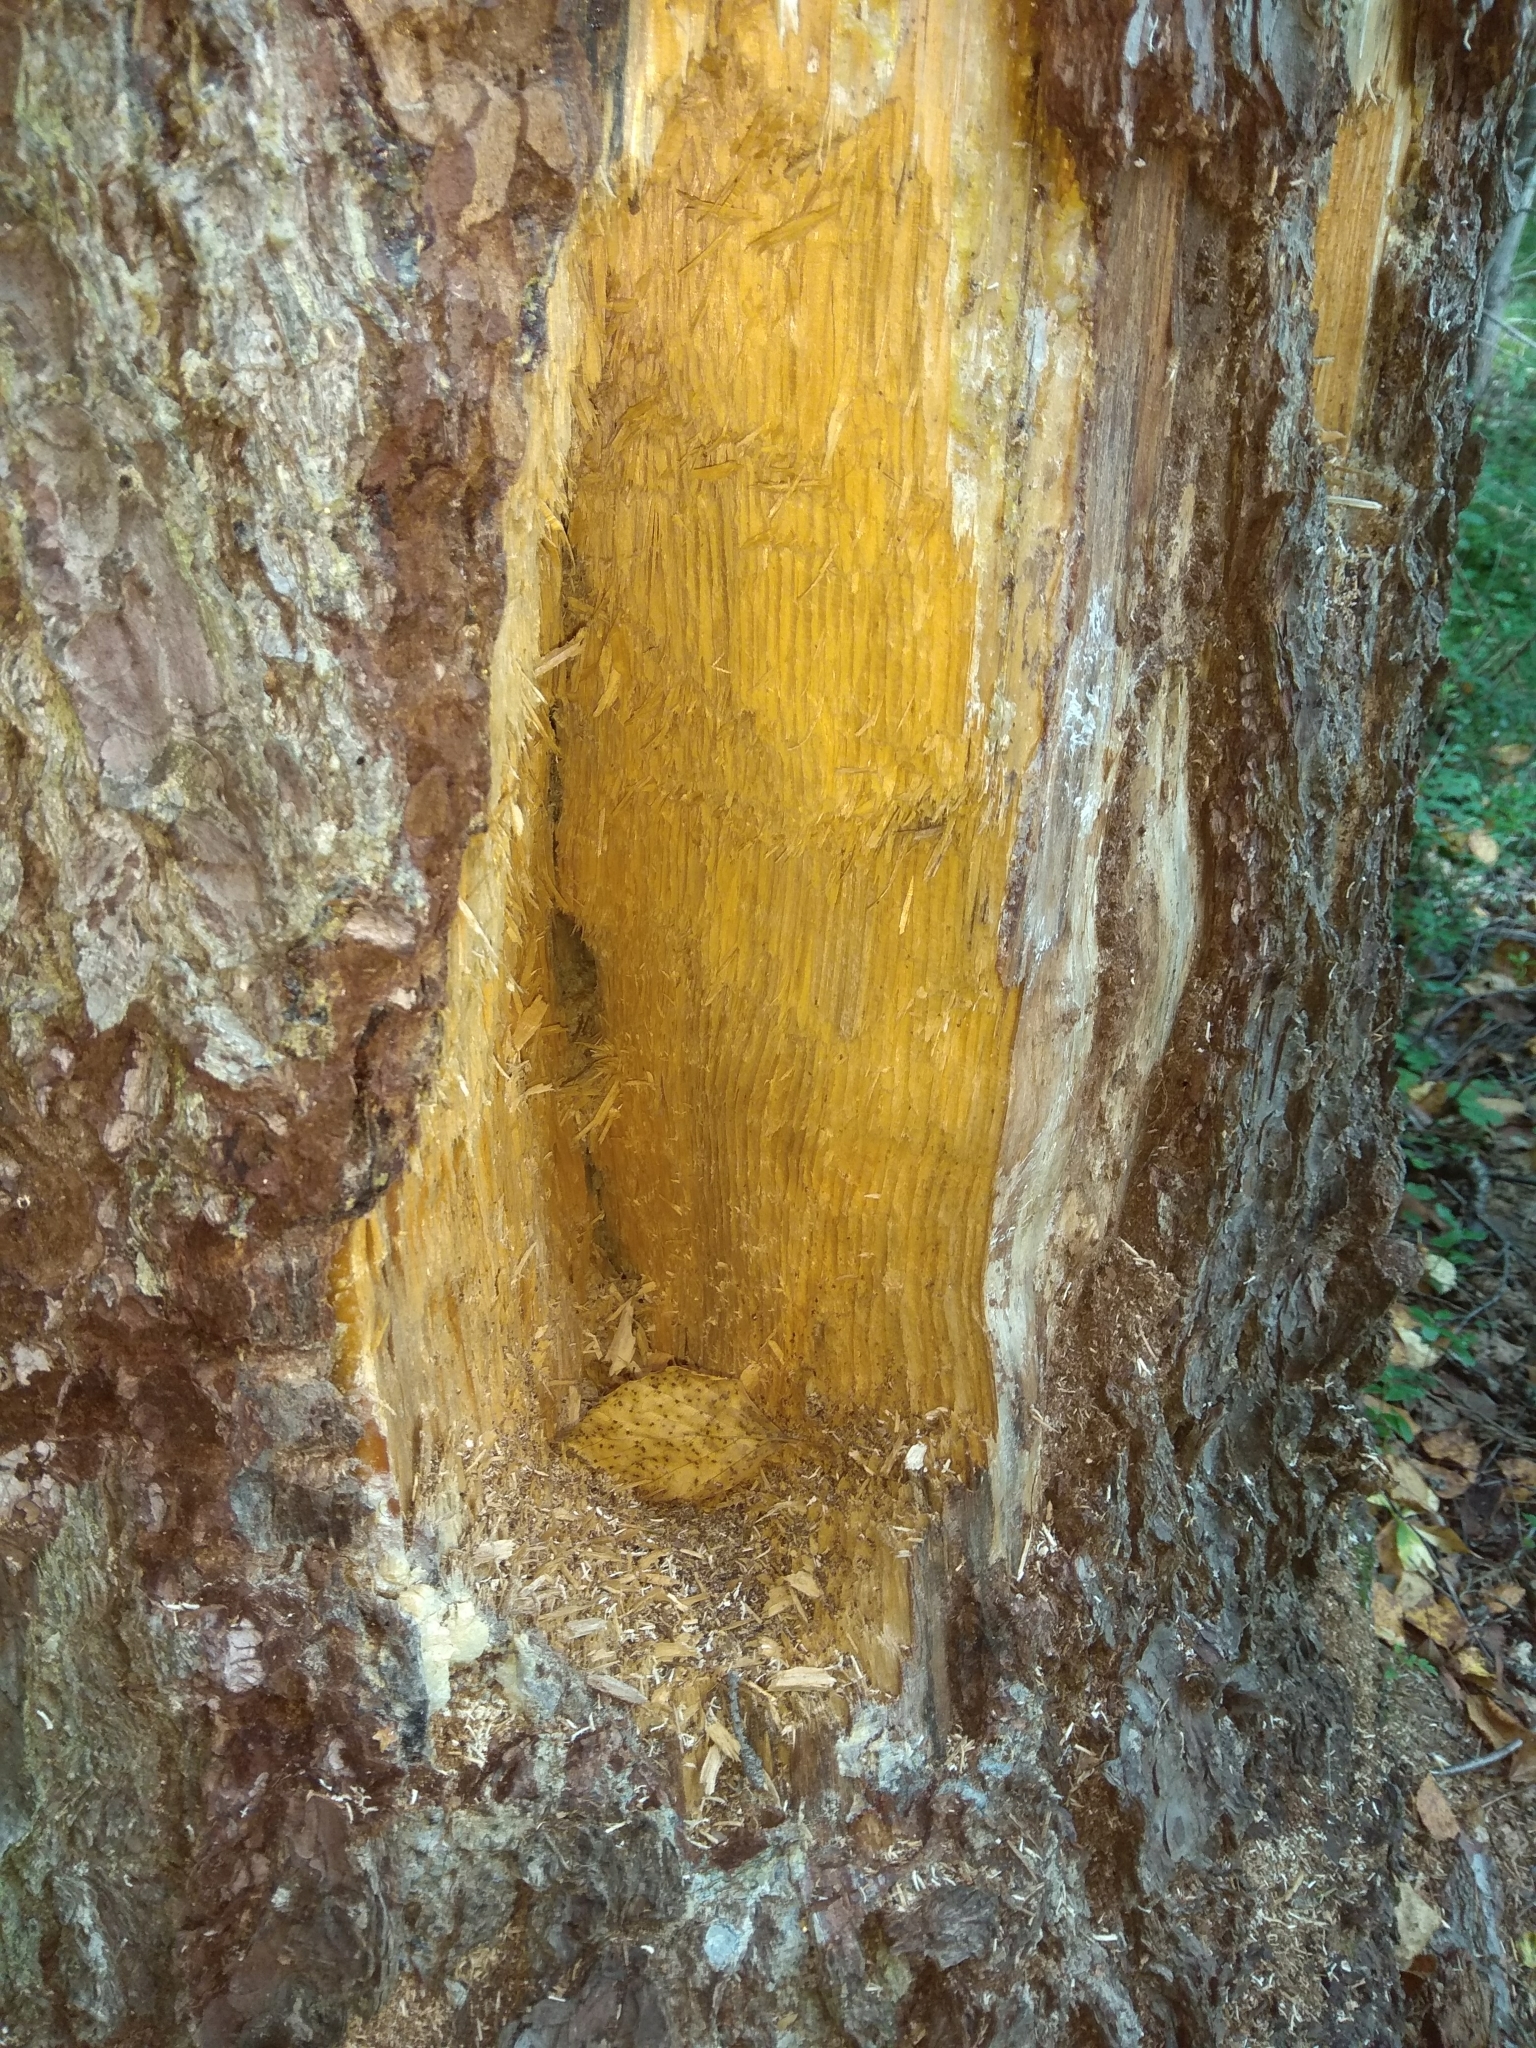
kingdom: Animalia
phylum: Chordata
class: Aves
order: Piciformes
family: Picidae
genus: Dryocopus
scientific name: Dryocopus martius
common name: Black woodpecker
